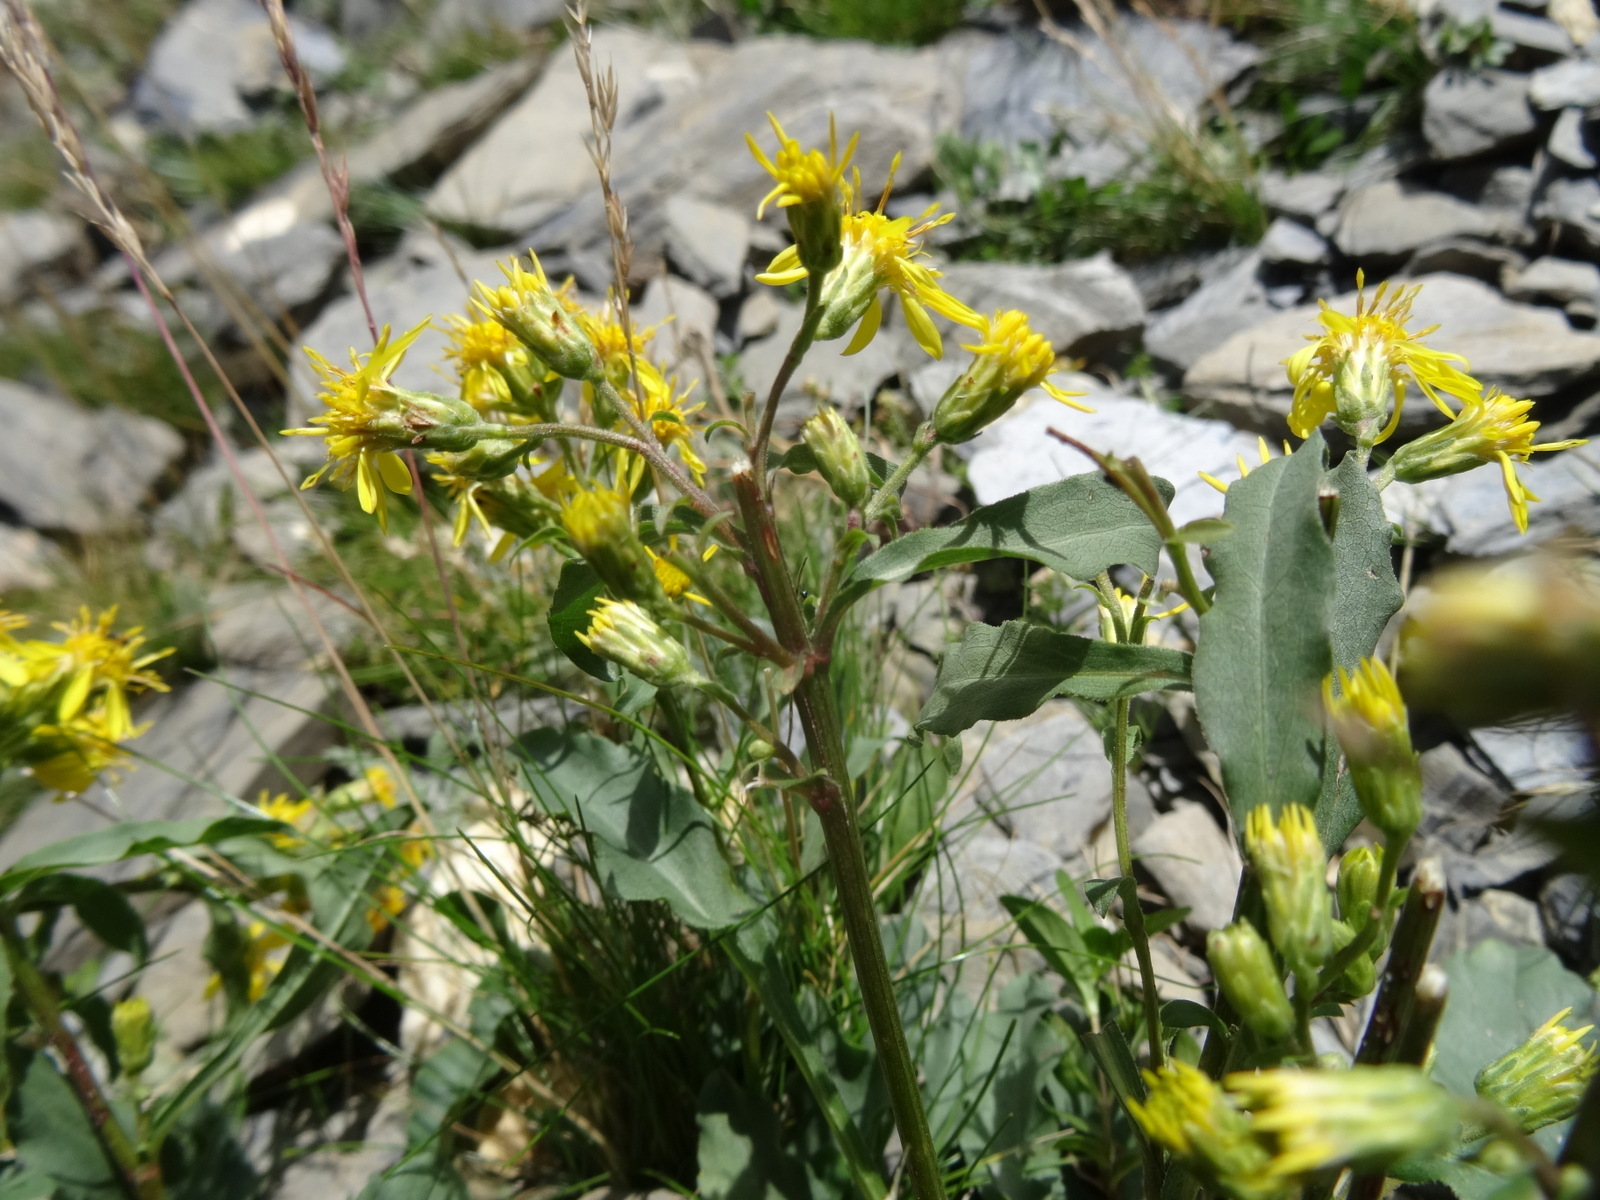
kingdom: Plantae
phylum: Tracheophyta
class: Magnoliopsida
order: Asterales
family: Asteraceae
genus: Solidago
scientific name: Solidago virgaurea
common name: Goldenrod
